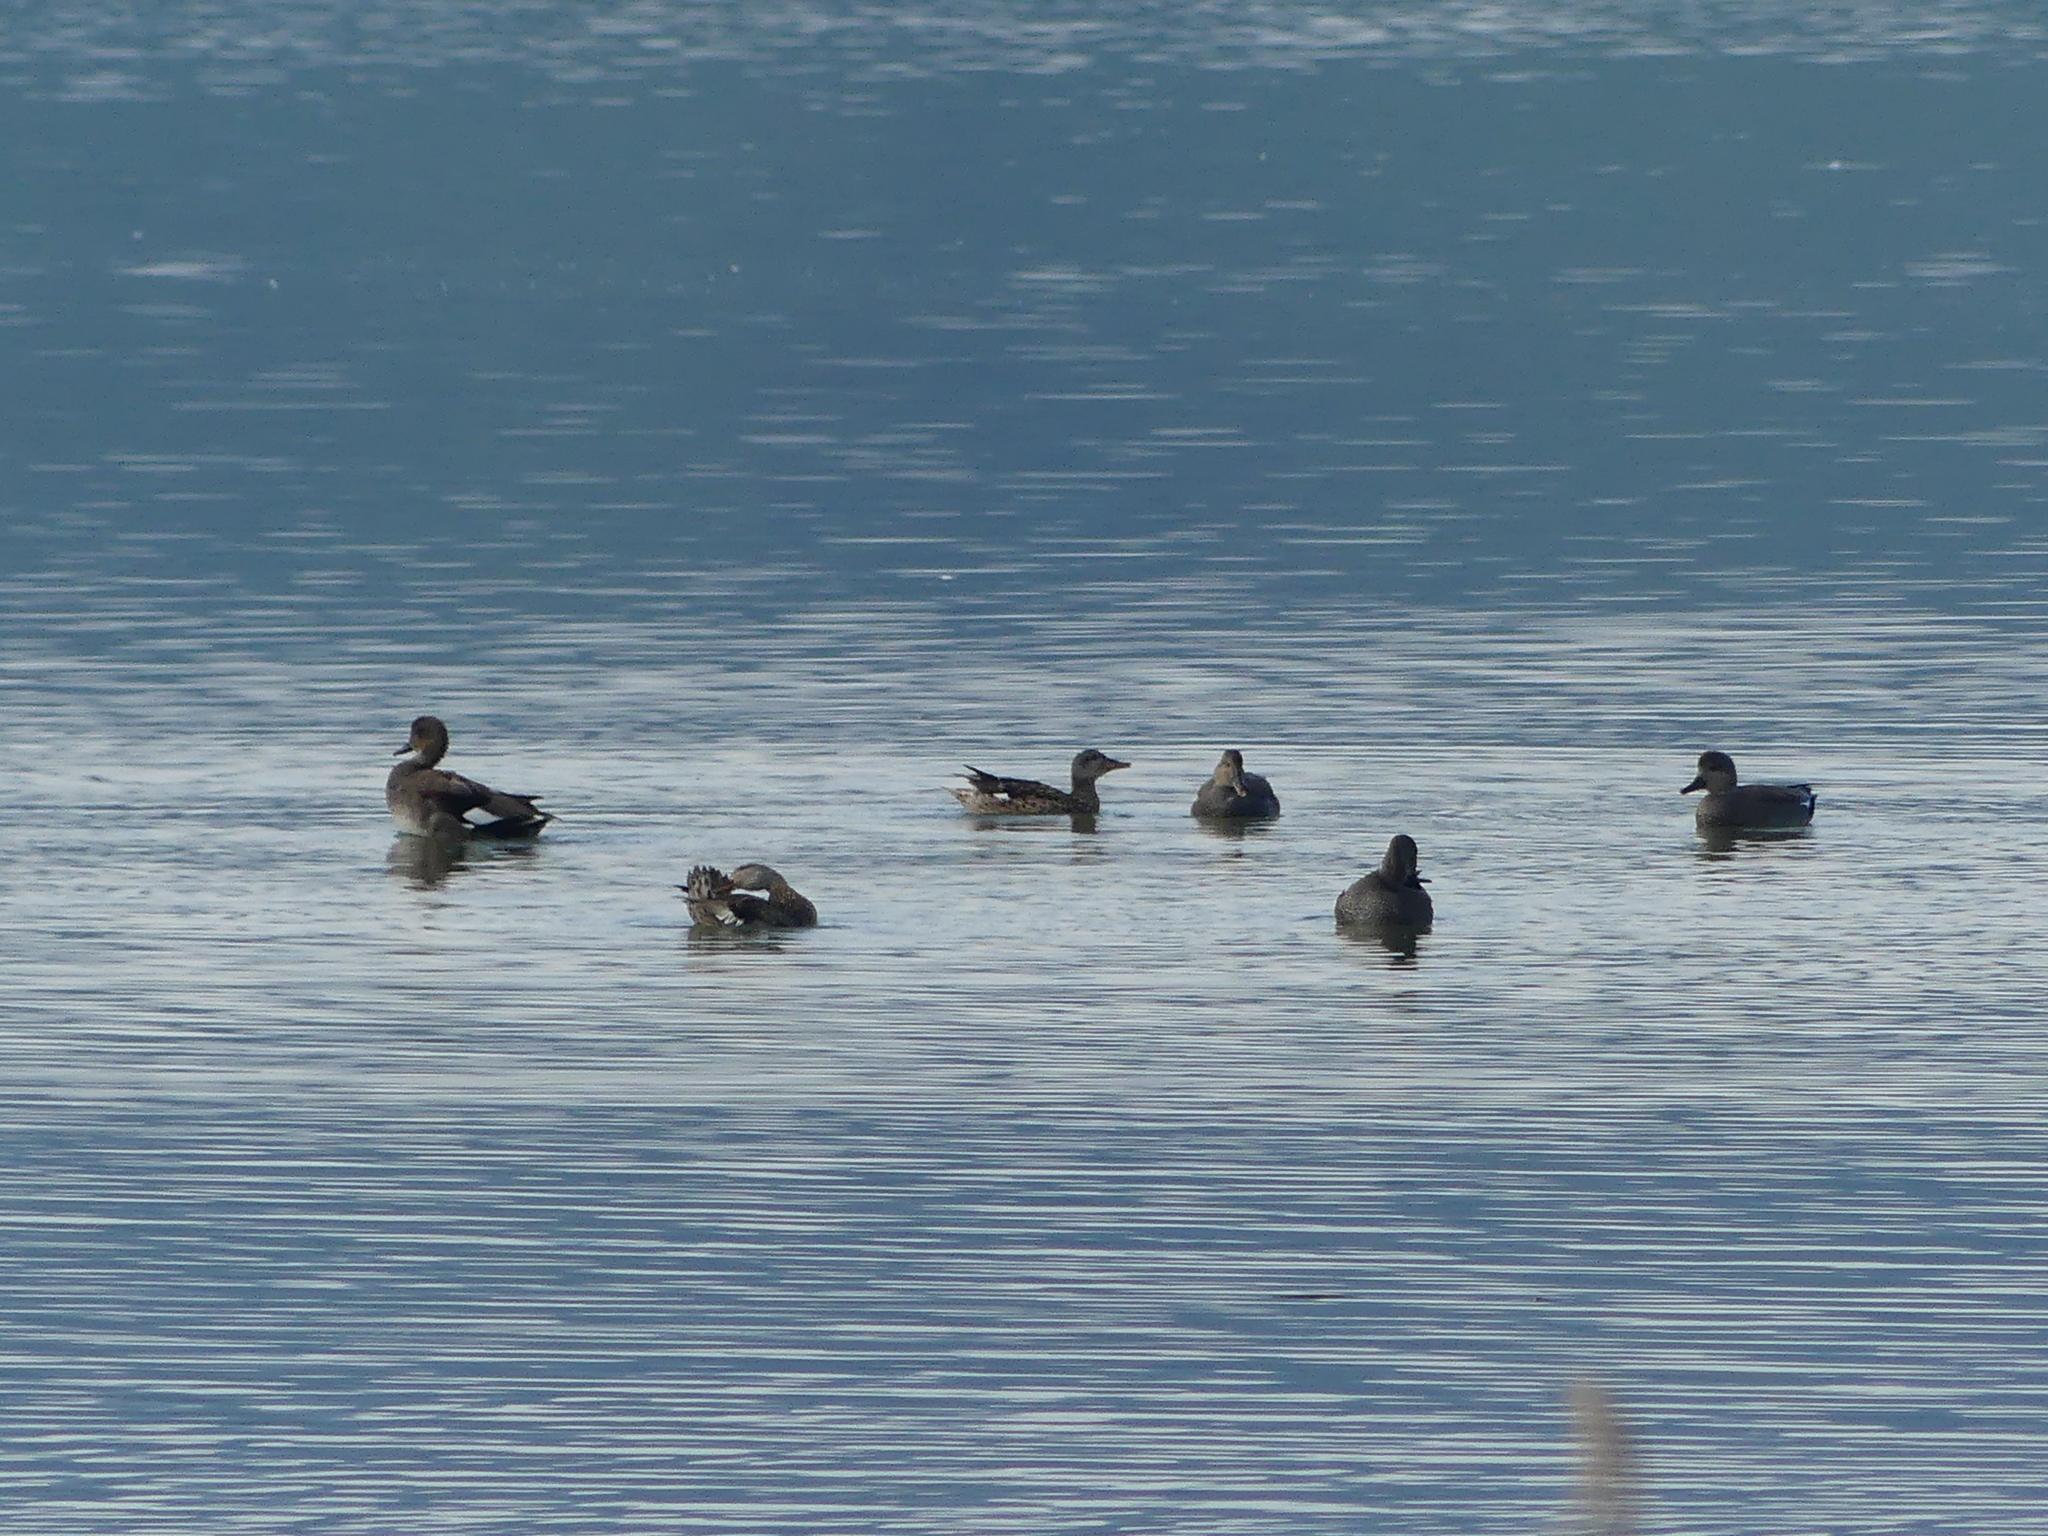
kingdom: Animalia
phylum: Chordata
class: Aves
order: Anseriformes
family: Anatidae
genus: Mareca
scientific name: Mareca strepera
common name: Gadwall
